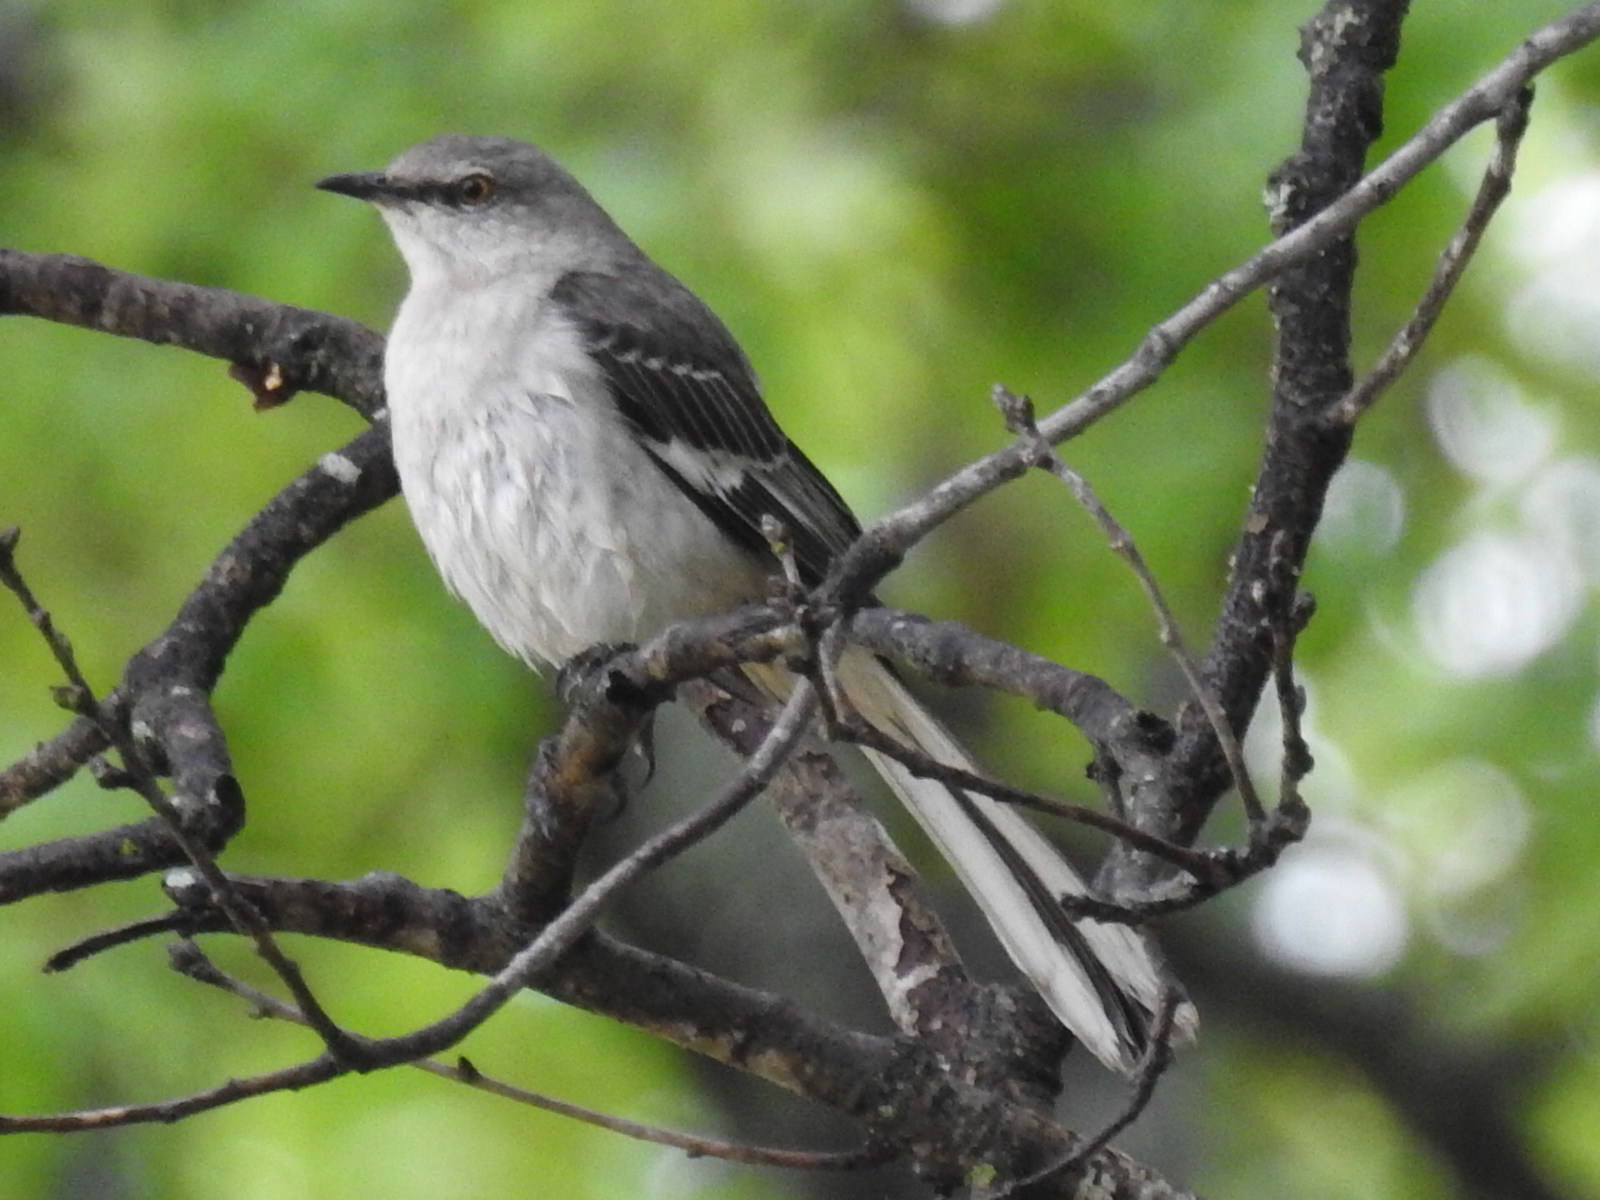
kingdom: Animalia
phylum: Chordata
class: Aves
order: Passeriformes
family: Mimidae
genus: Mimus
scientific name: Mimus polyglottos
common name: Northern mockingbird
